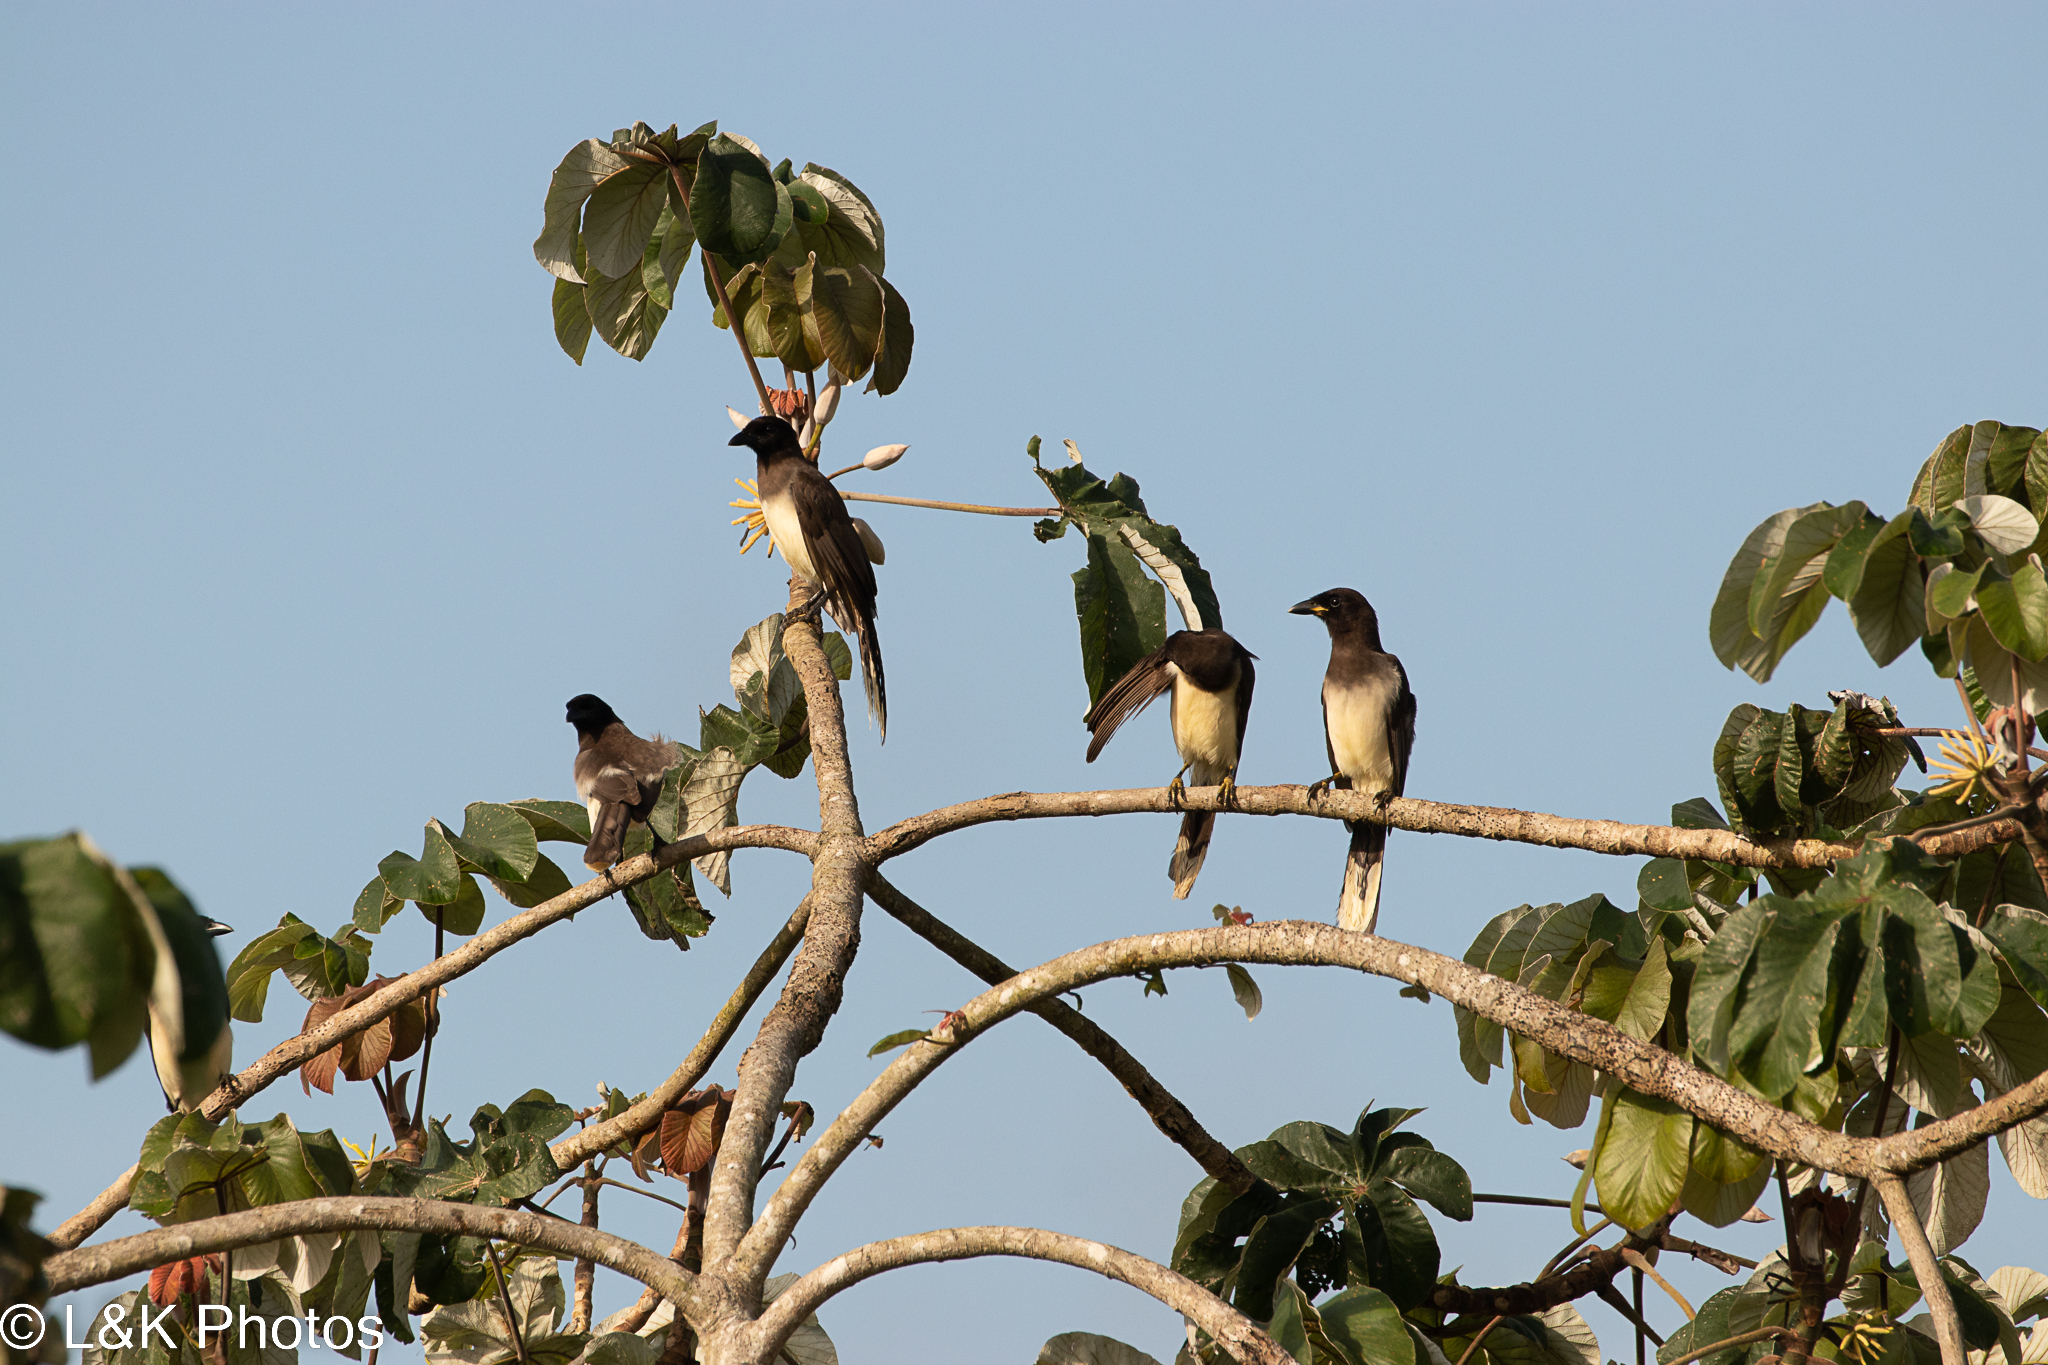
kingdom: Animalia
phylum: Chordata
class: Aves
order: Passeriformes
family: Corvidae
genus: Psilorhinus
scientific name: Psilorhinus morio
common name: Brown jay
